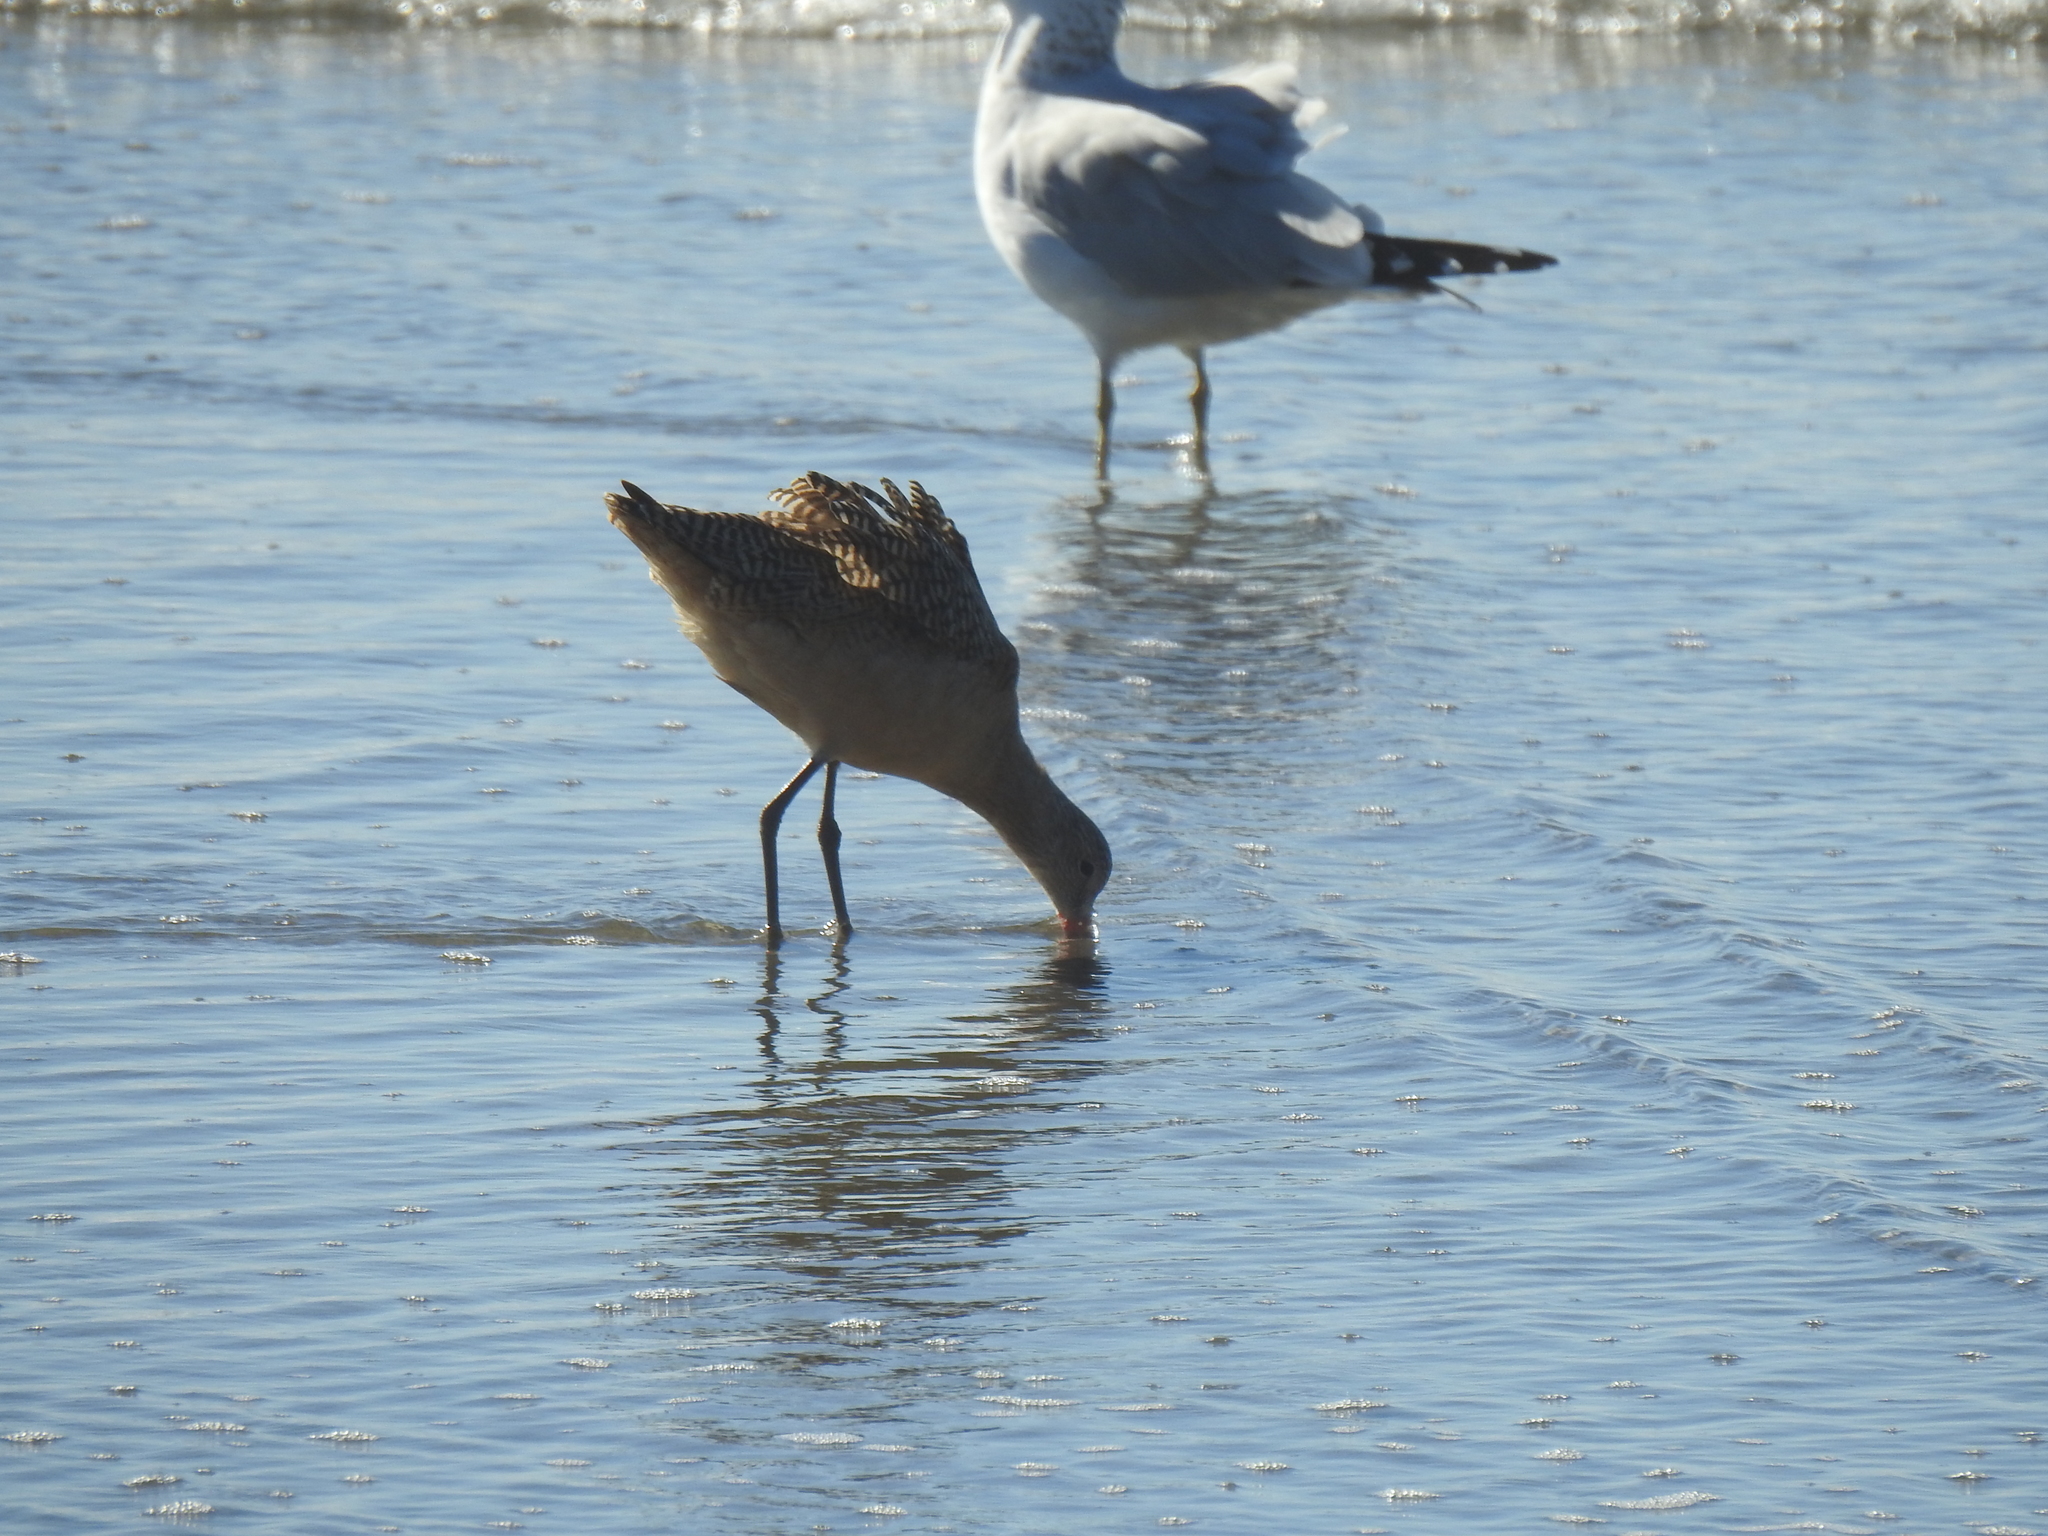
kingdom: Animalia
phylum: Chordata
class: Aves
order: Charadriiformes
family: Scolopacidae
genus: Limosa
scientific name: Limosa fedoa
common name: Marbled godwit
